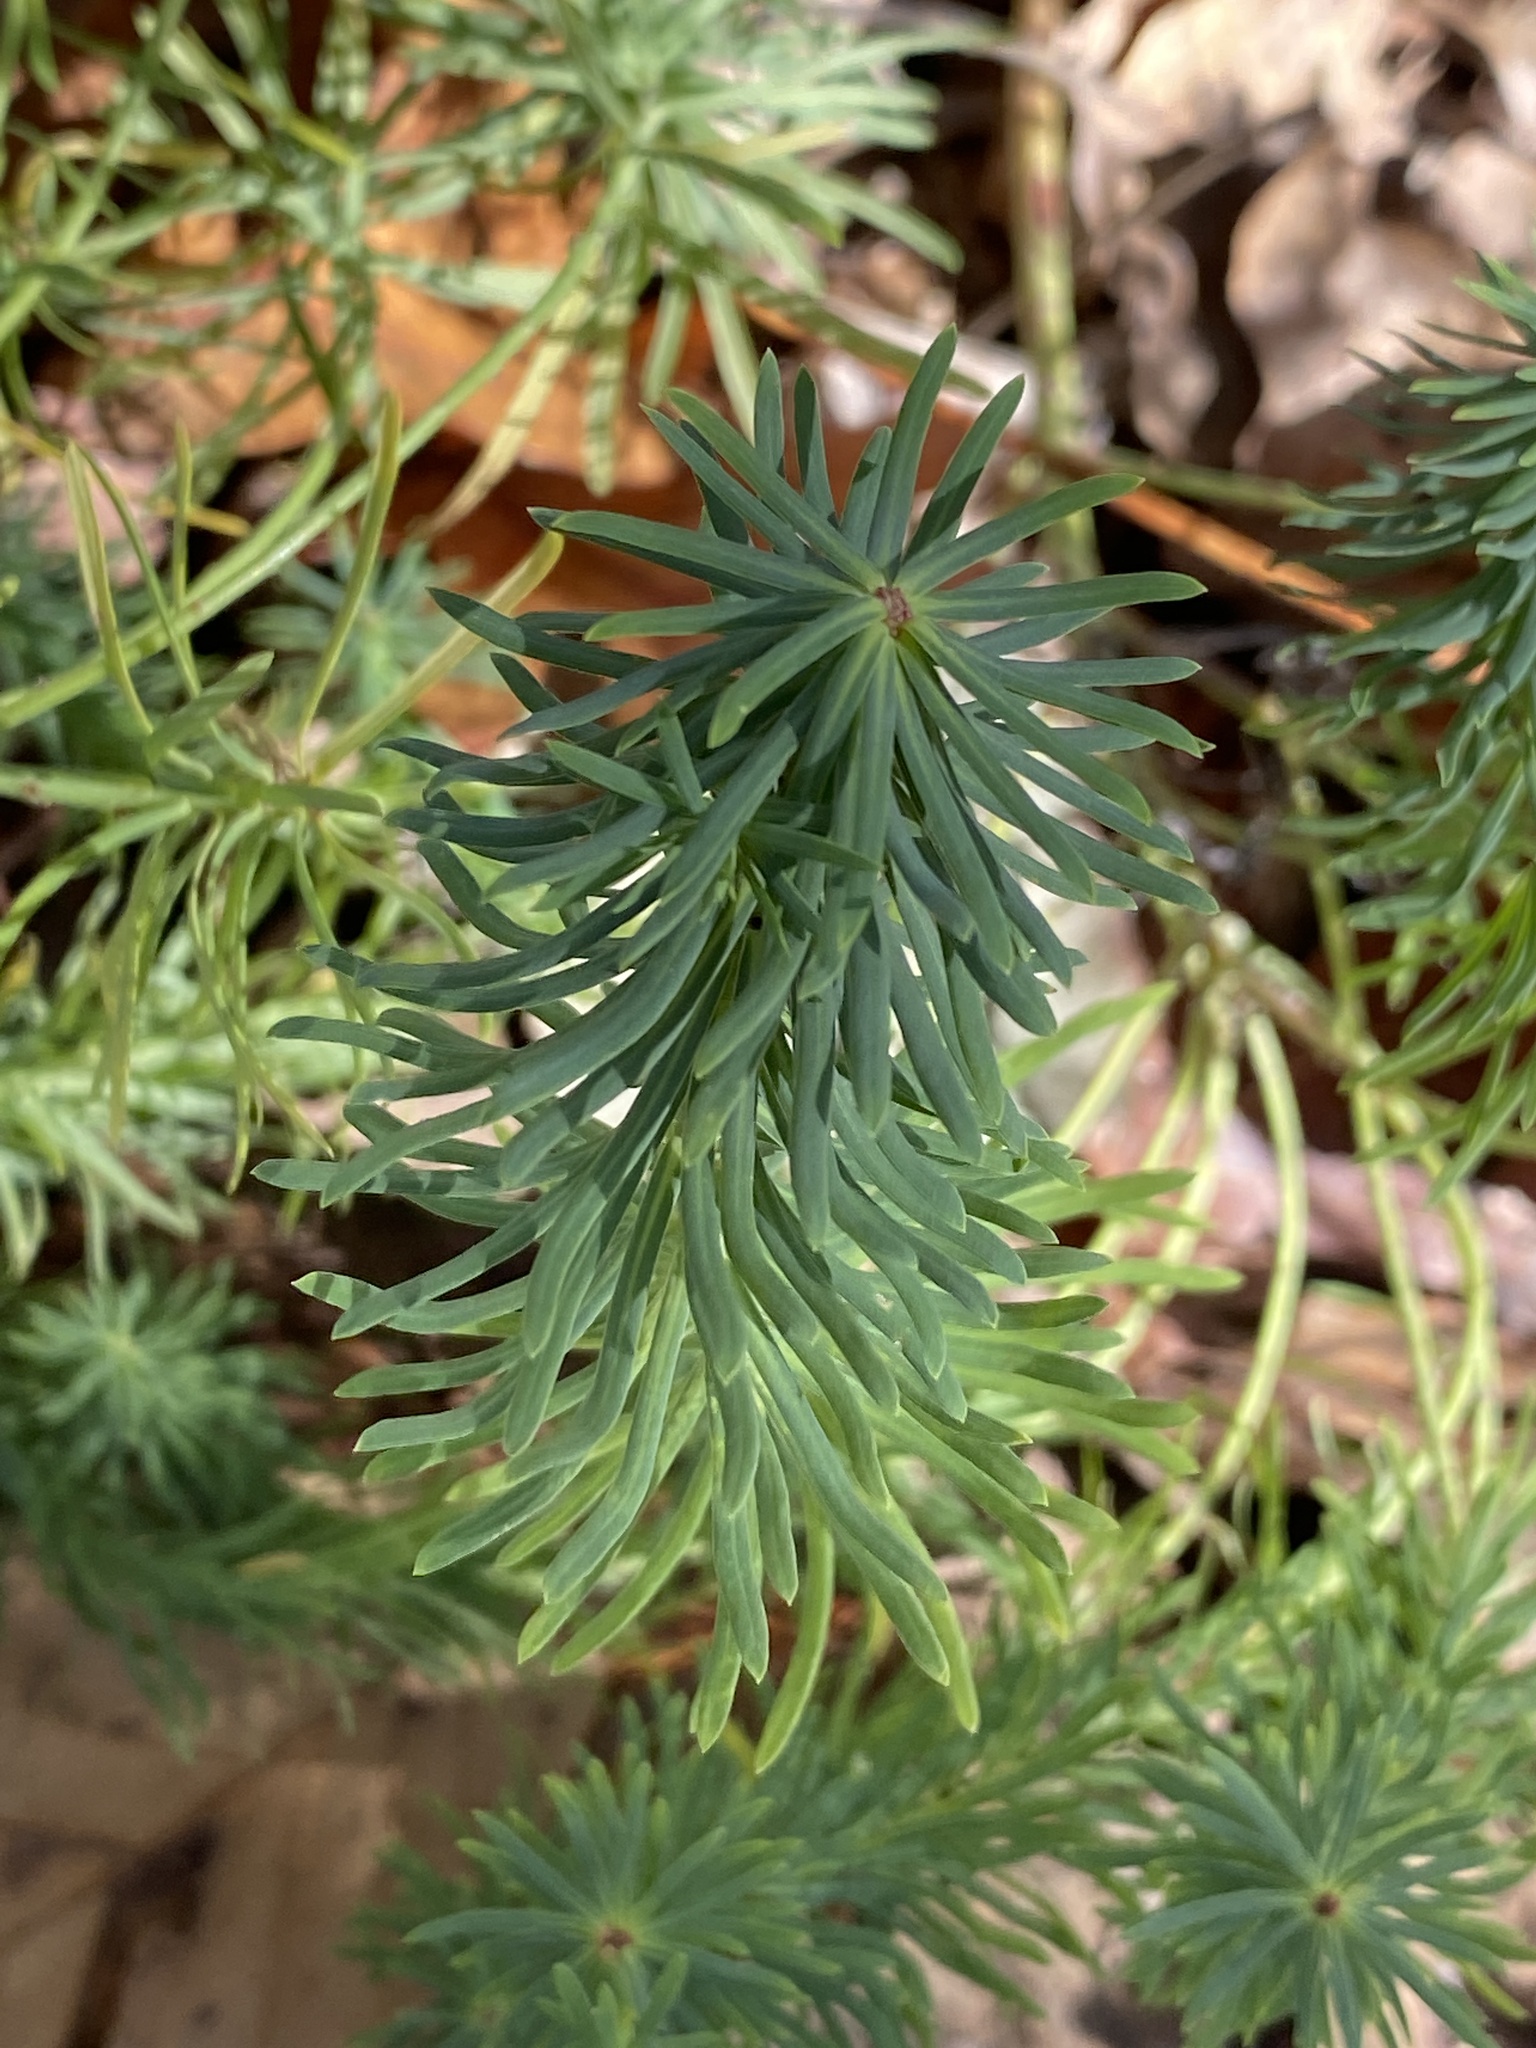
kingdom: Plantae
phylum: Tracheophyta
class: Magnoliopsida
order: Malpighiales
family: Euphorbiaceae
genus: Euphorbia
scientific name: Euphorbia cyparissias
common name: Cypress spurge
